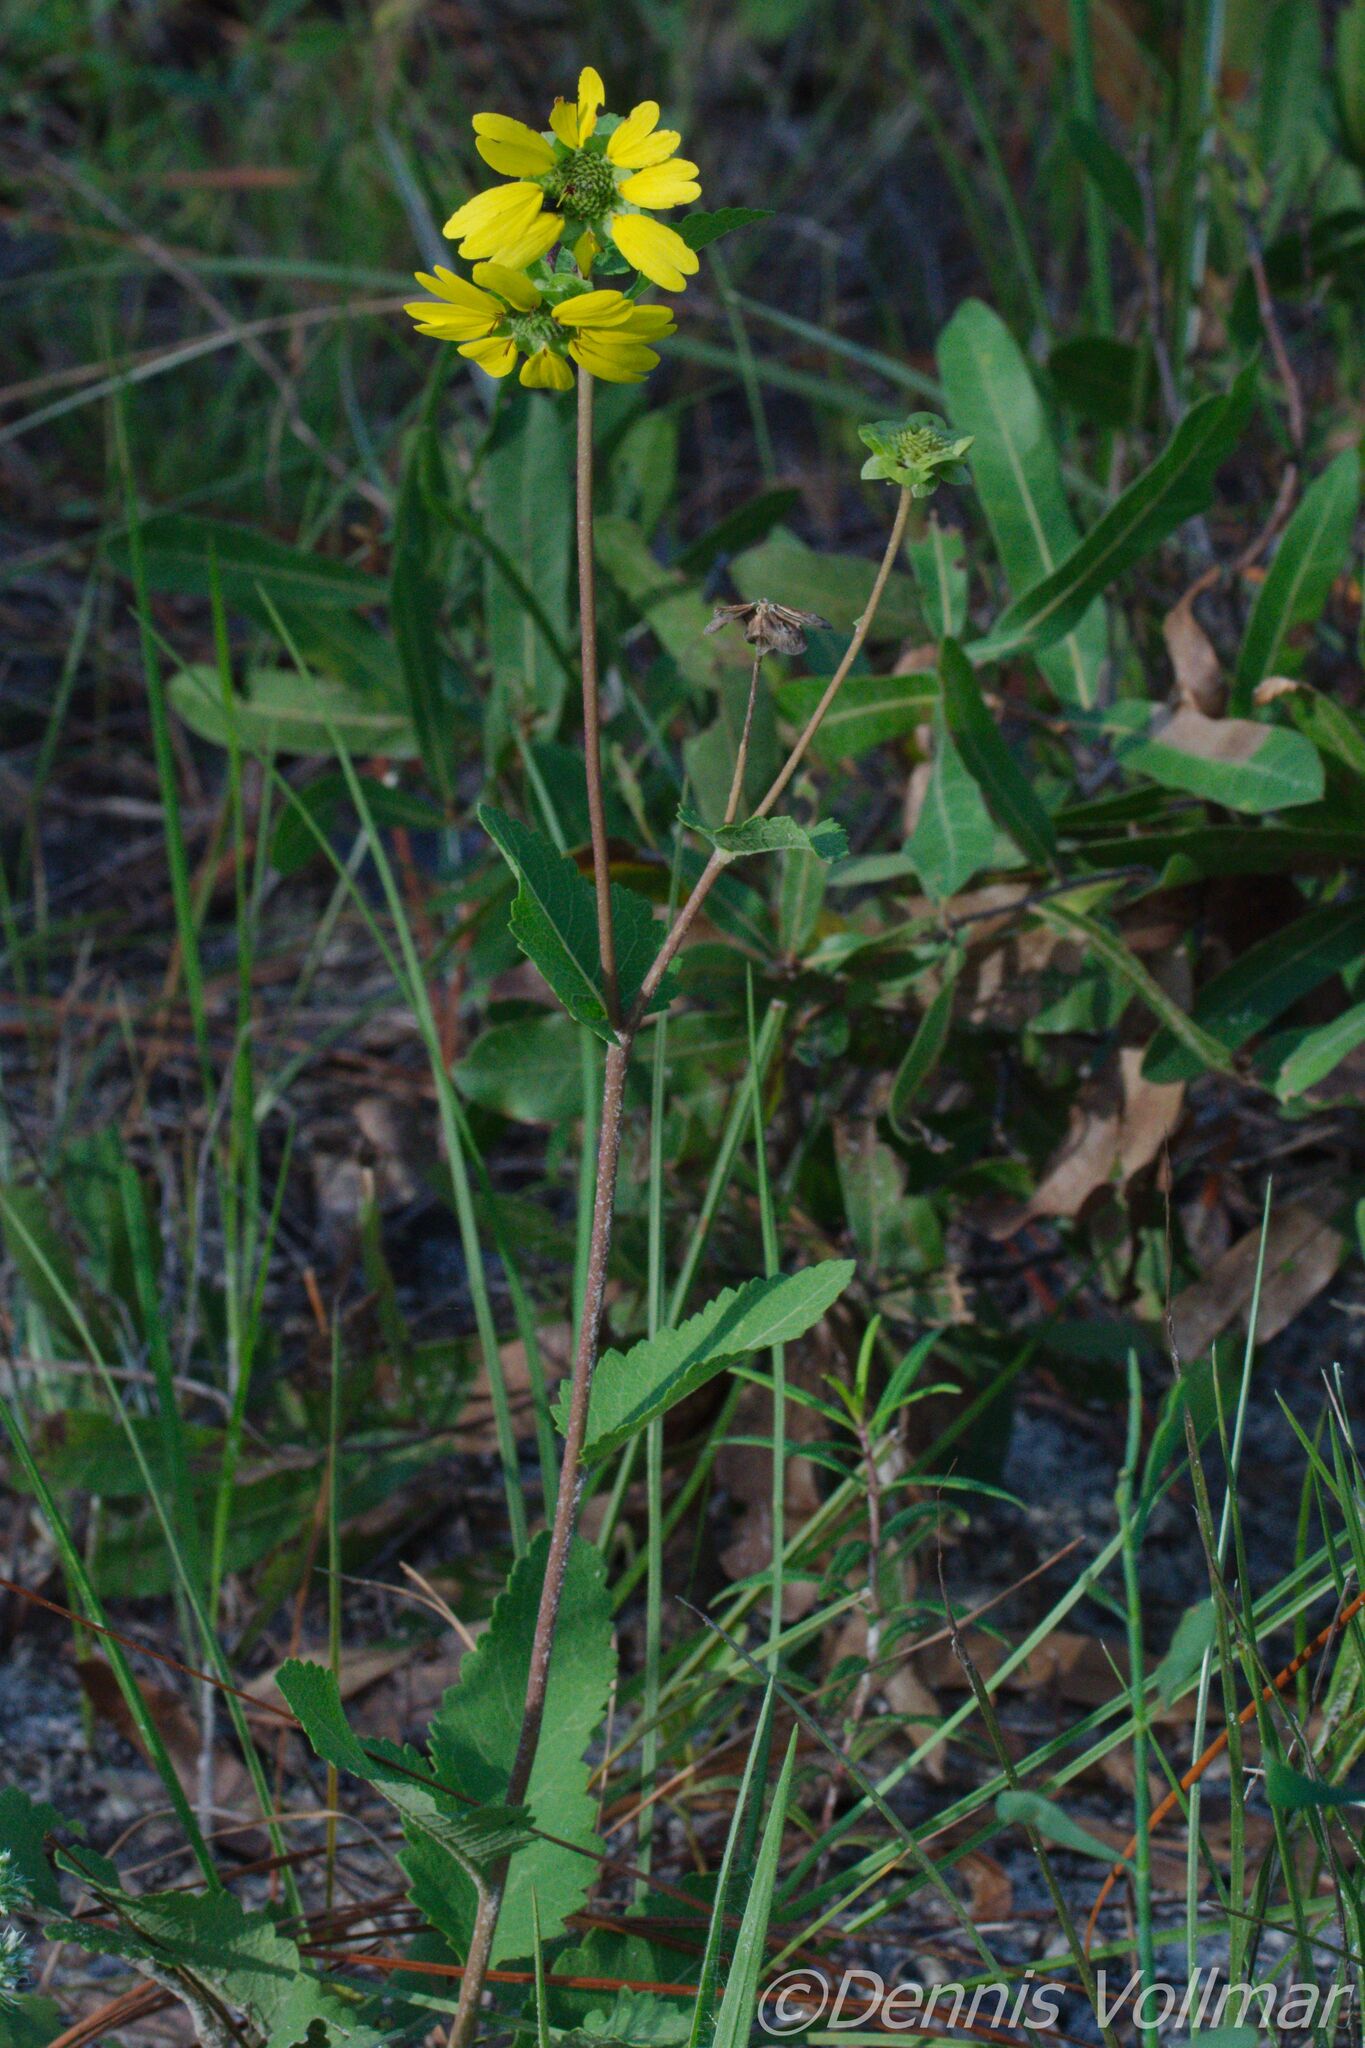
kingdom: Plantae
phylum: Tracheophyta
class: Magnoliopsida
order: Asterales
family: Asteraceae
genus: Berlandiera
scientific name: Berlandiera pumila
